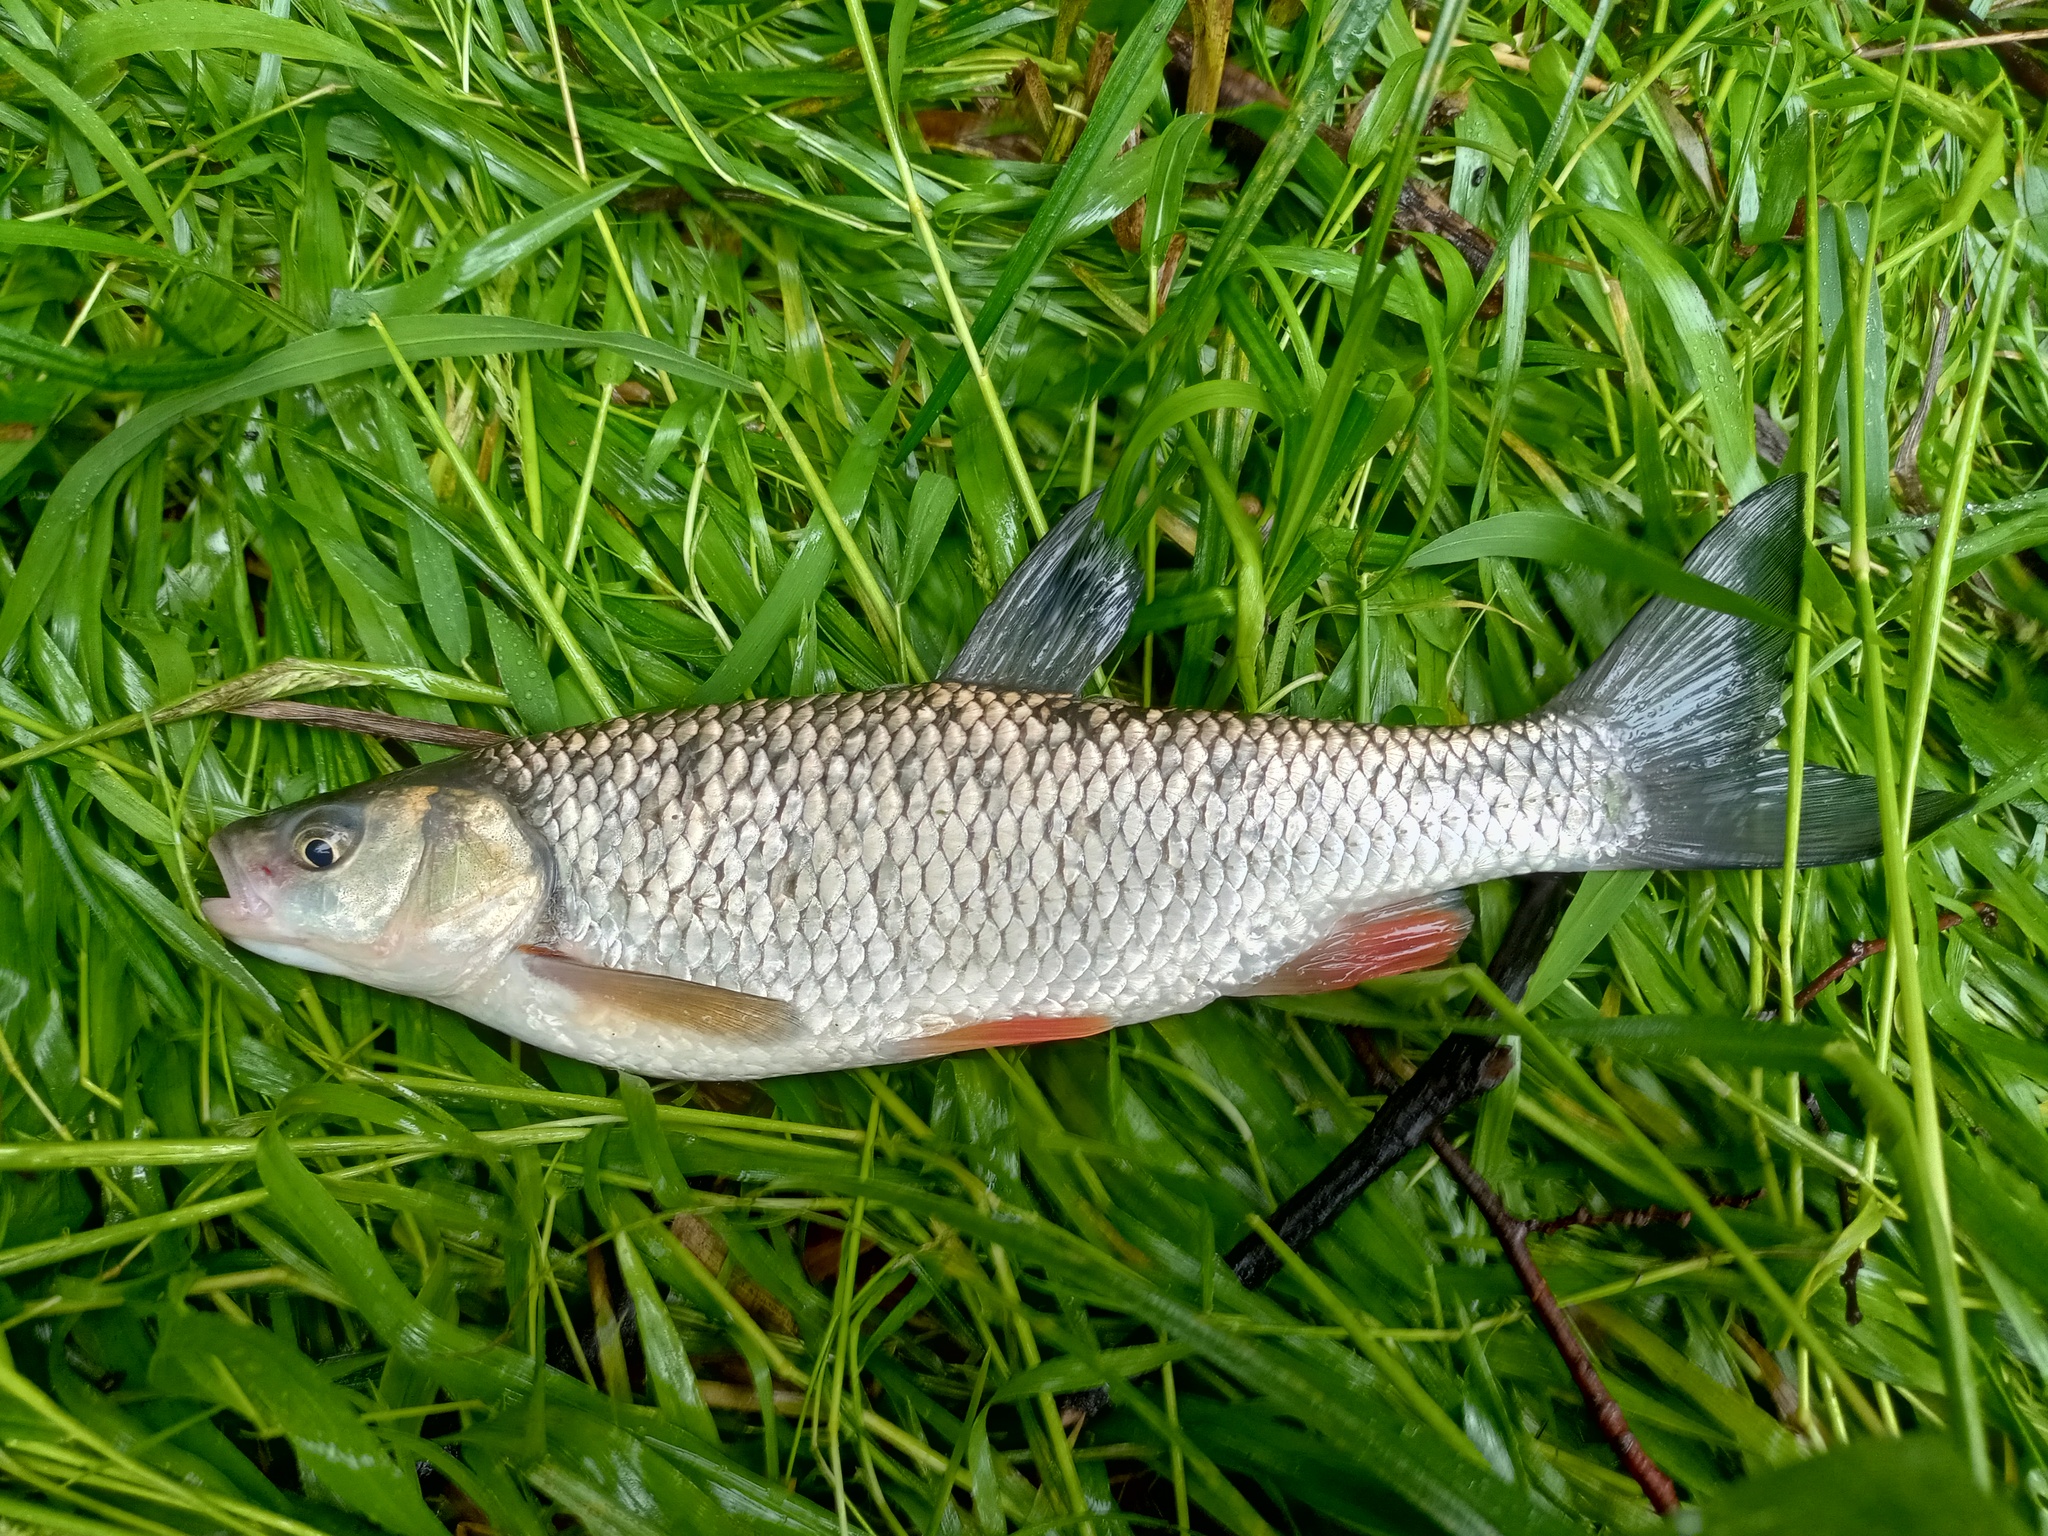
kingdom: Animalia
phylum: Chordata
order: Cypriniformes
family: Cyprinidae
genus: Squalius
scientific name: Squalius cephalus
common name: Chub
